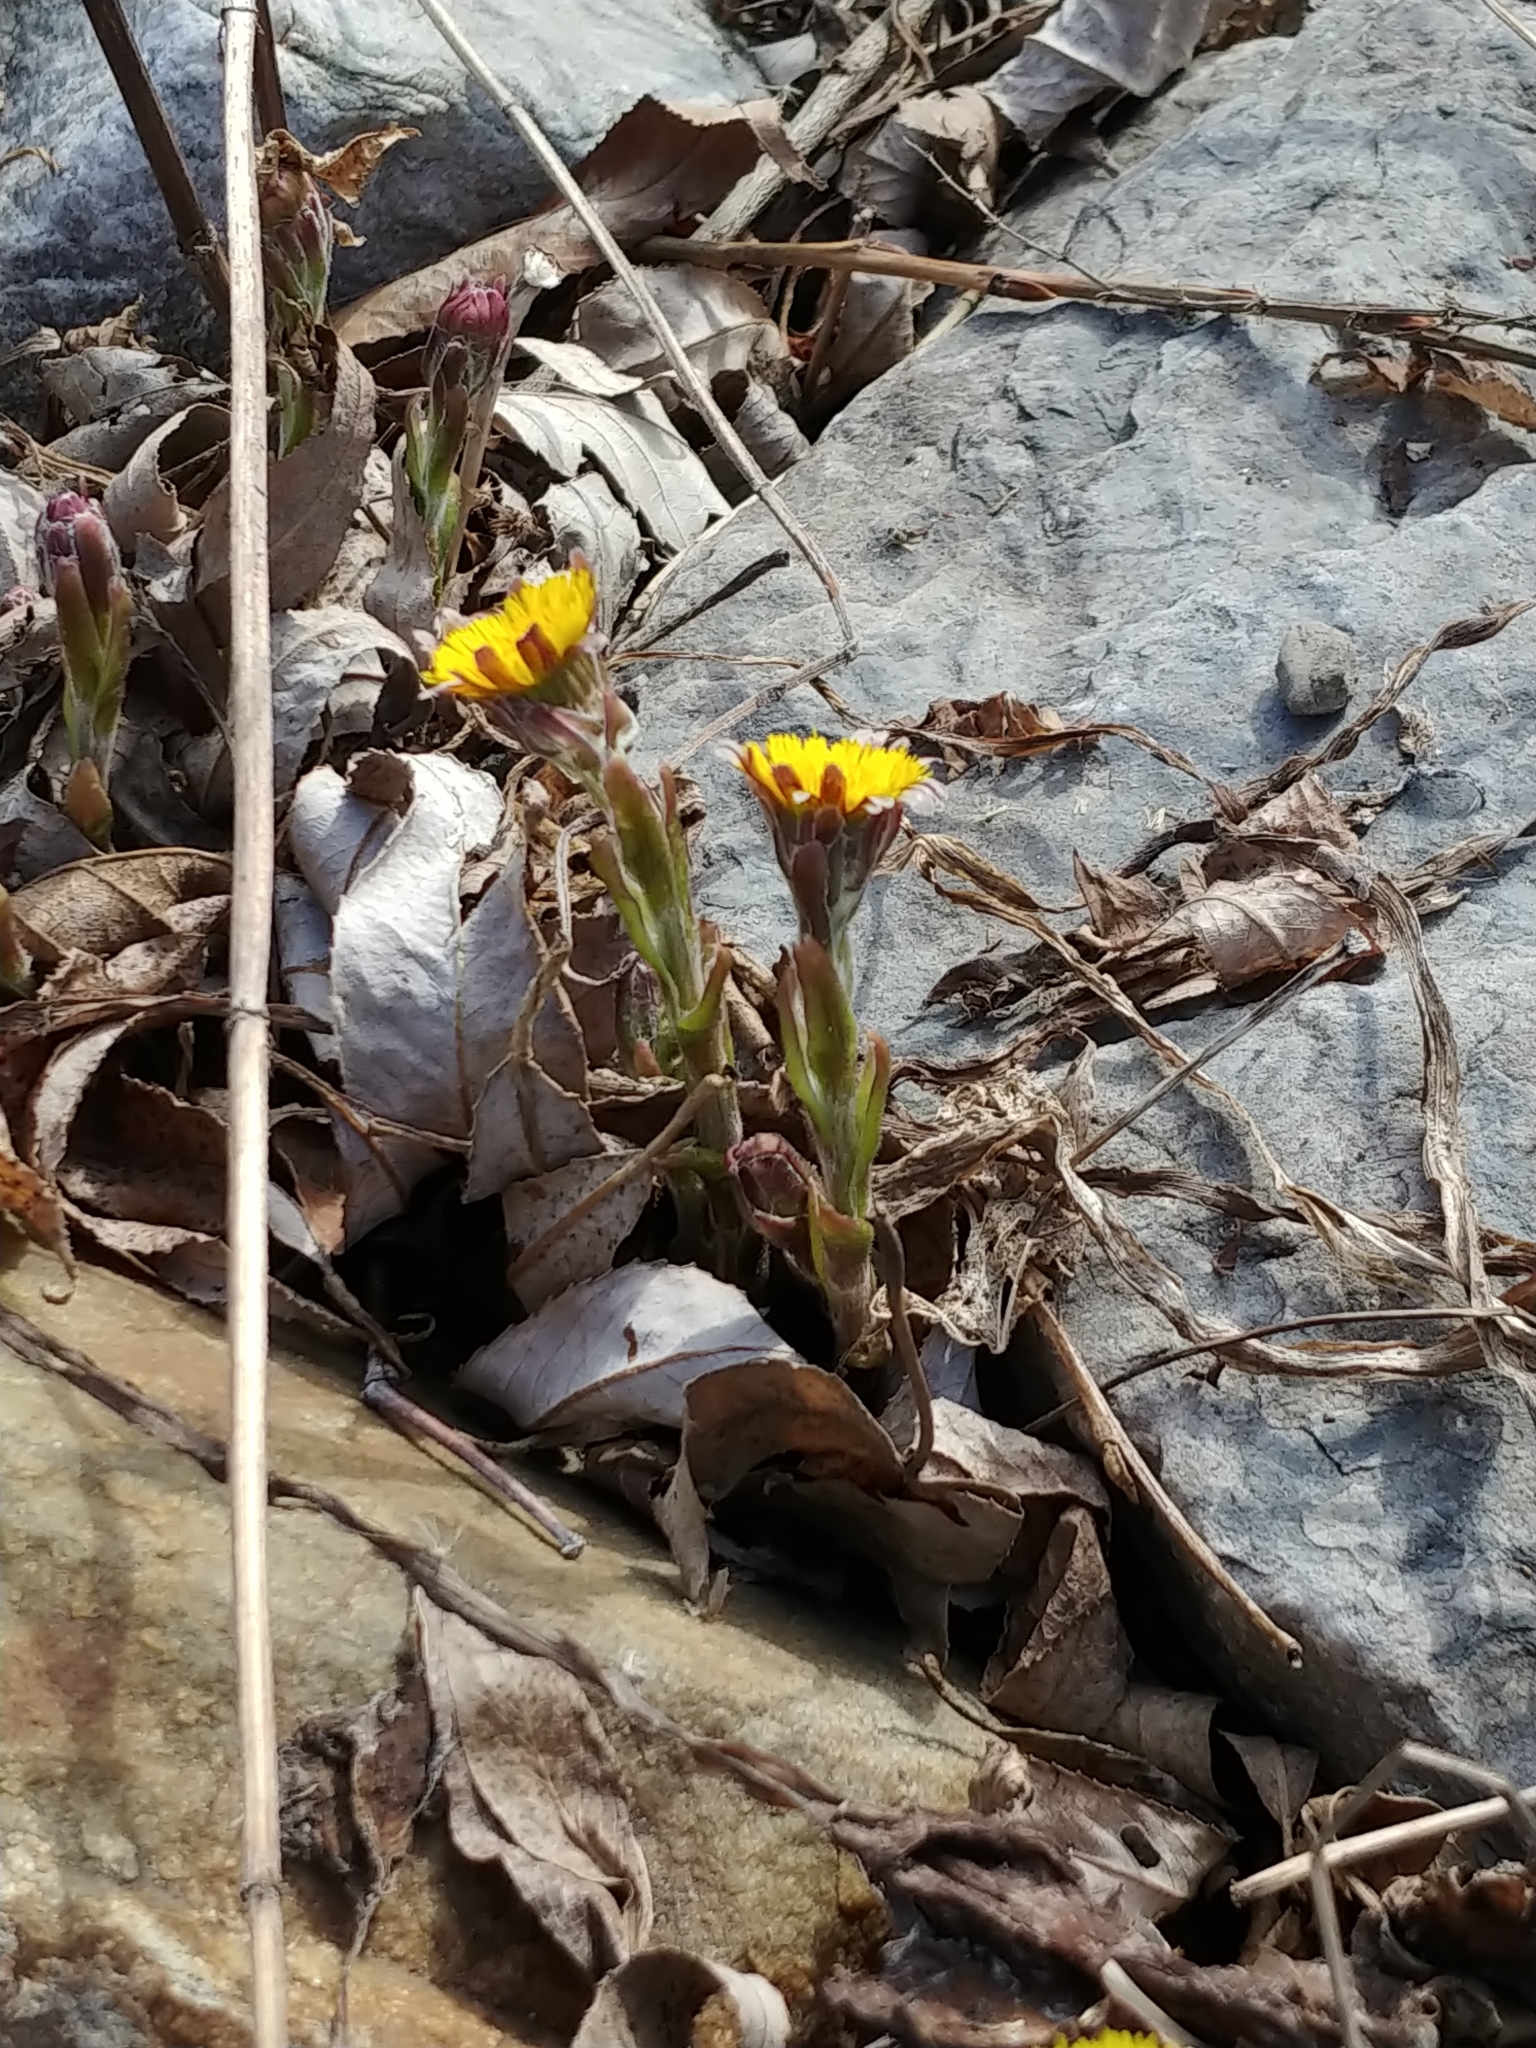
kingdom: Plantae
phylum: Tracheophyta
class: Magnoliopsida
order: Asterales
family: Asteraceae
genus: Tussilago
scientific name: Tussilago farfara
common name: Coltsfoot
